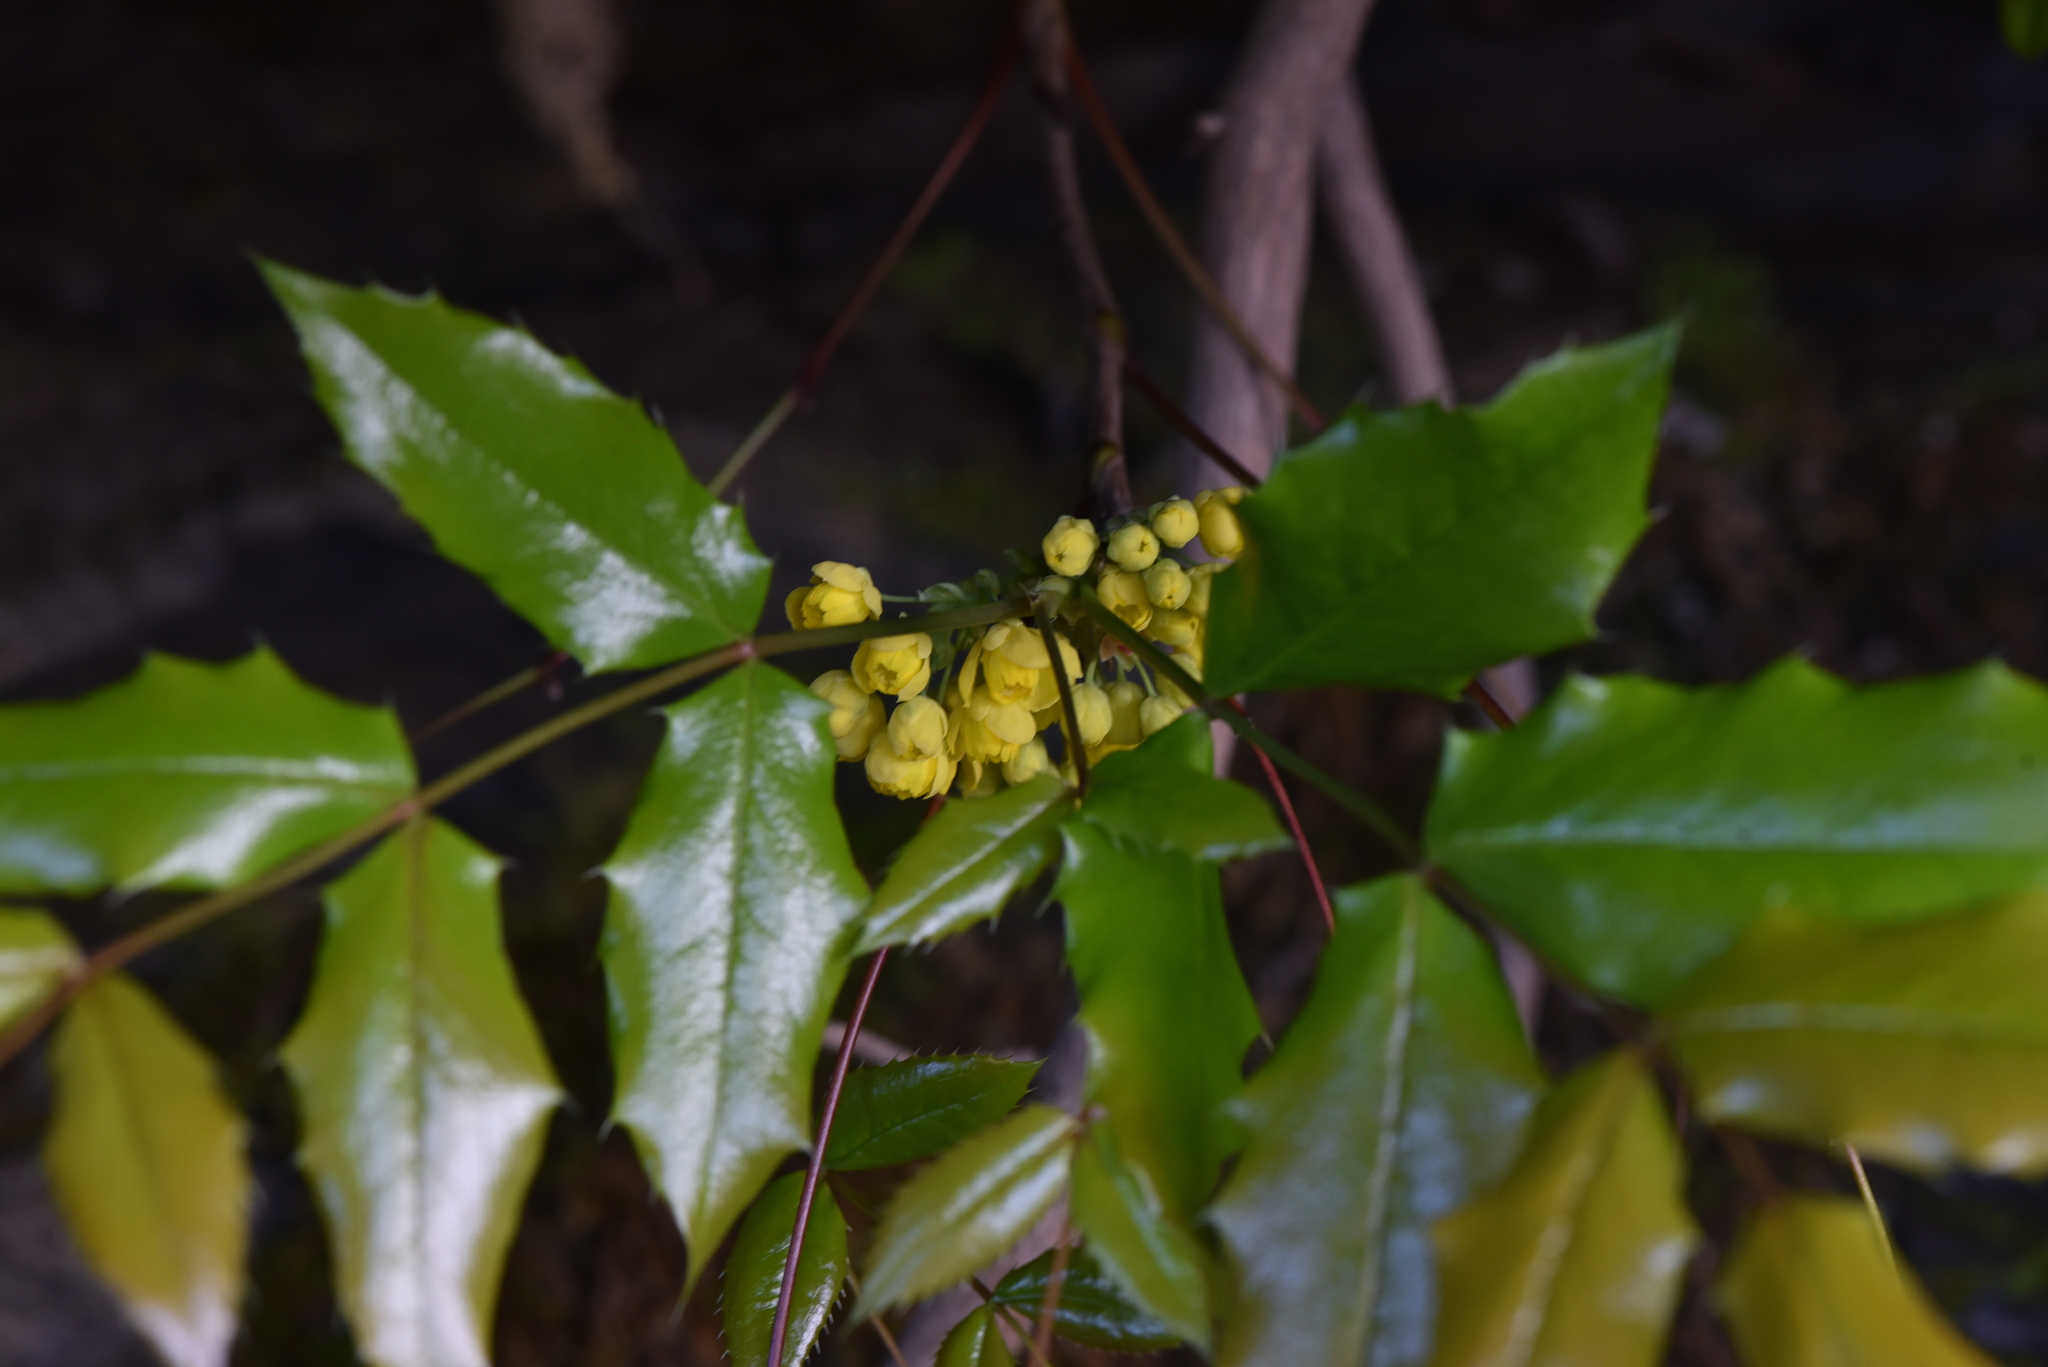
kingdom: Plantae
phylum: Tracheophyta
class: Magnoliopsida
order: Ranunculales
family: Berberidaceae
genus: Mahonia
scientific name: Mahonia aquifolium
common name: Oregon-grape
